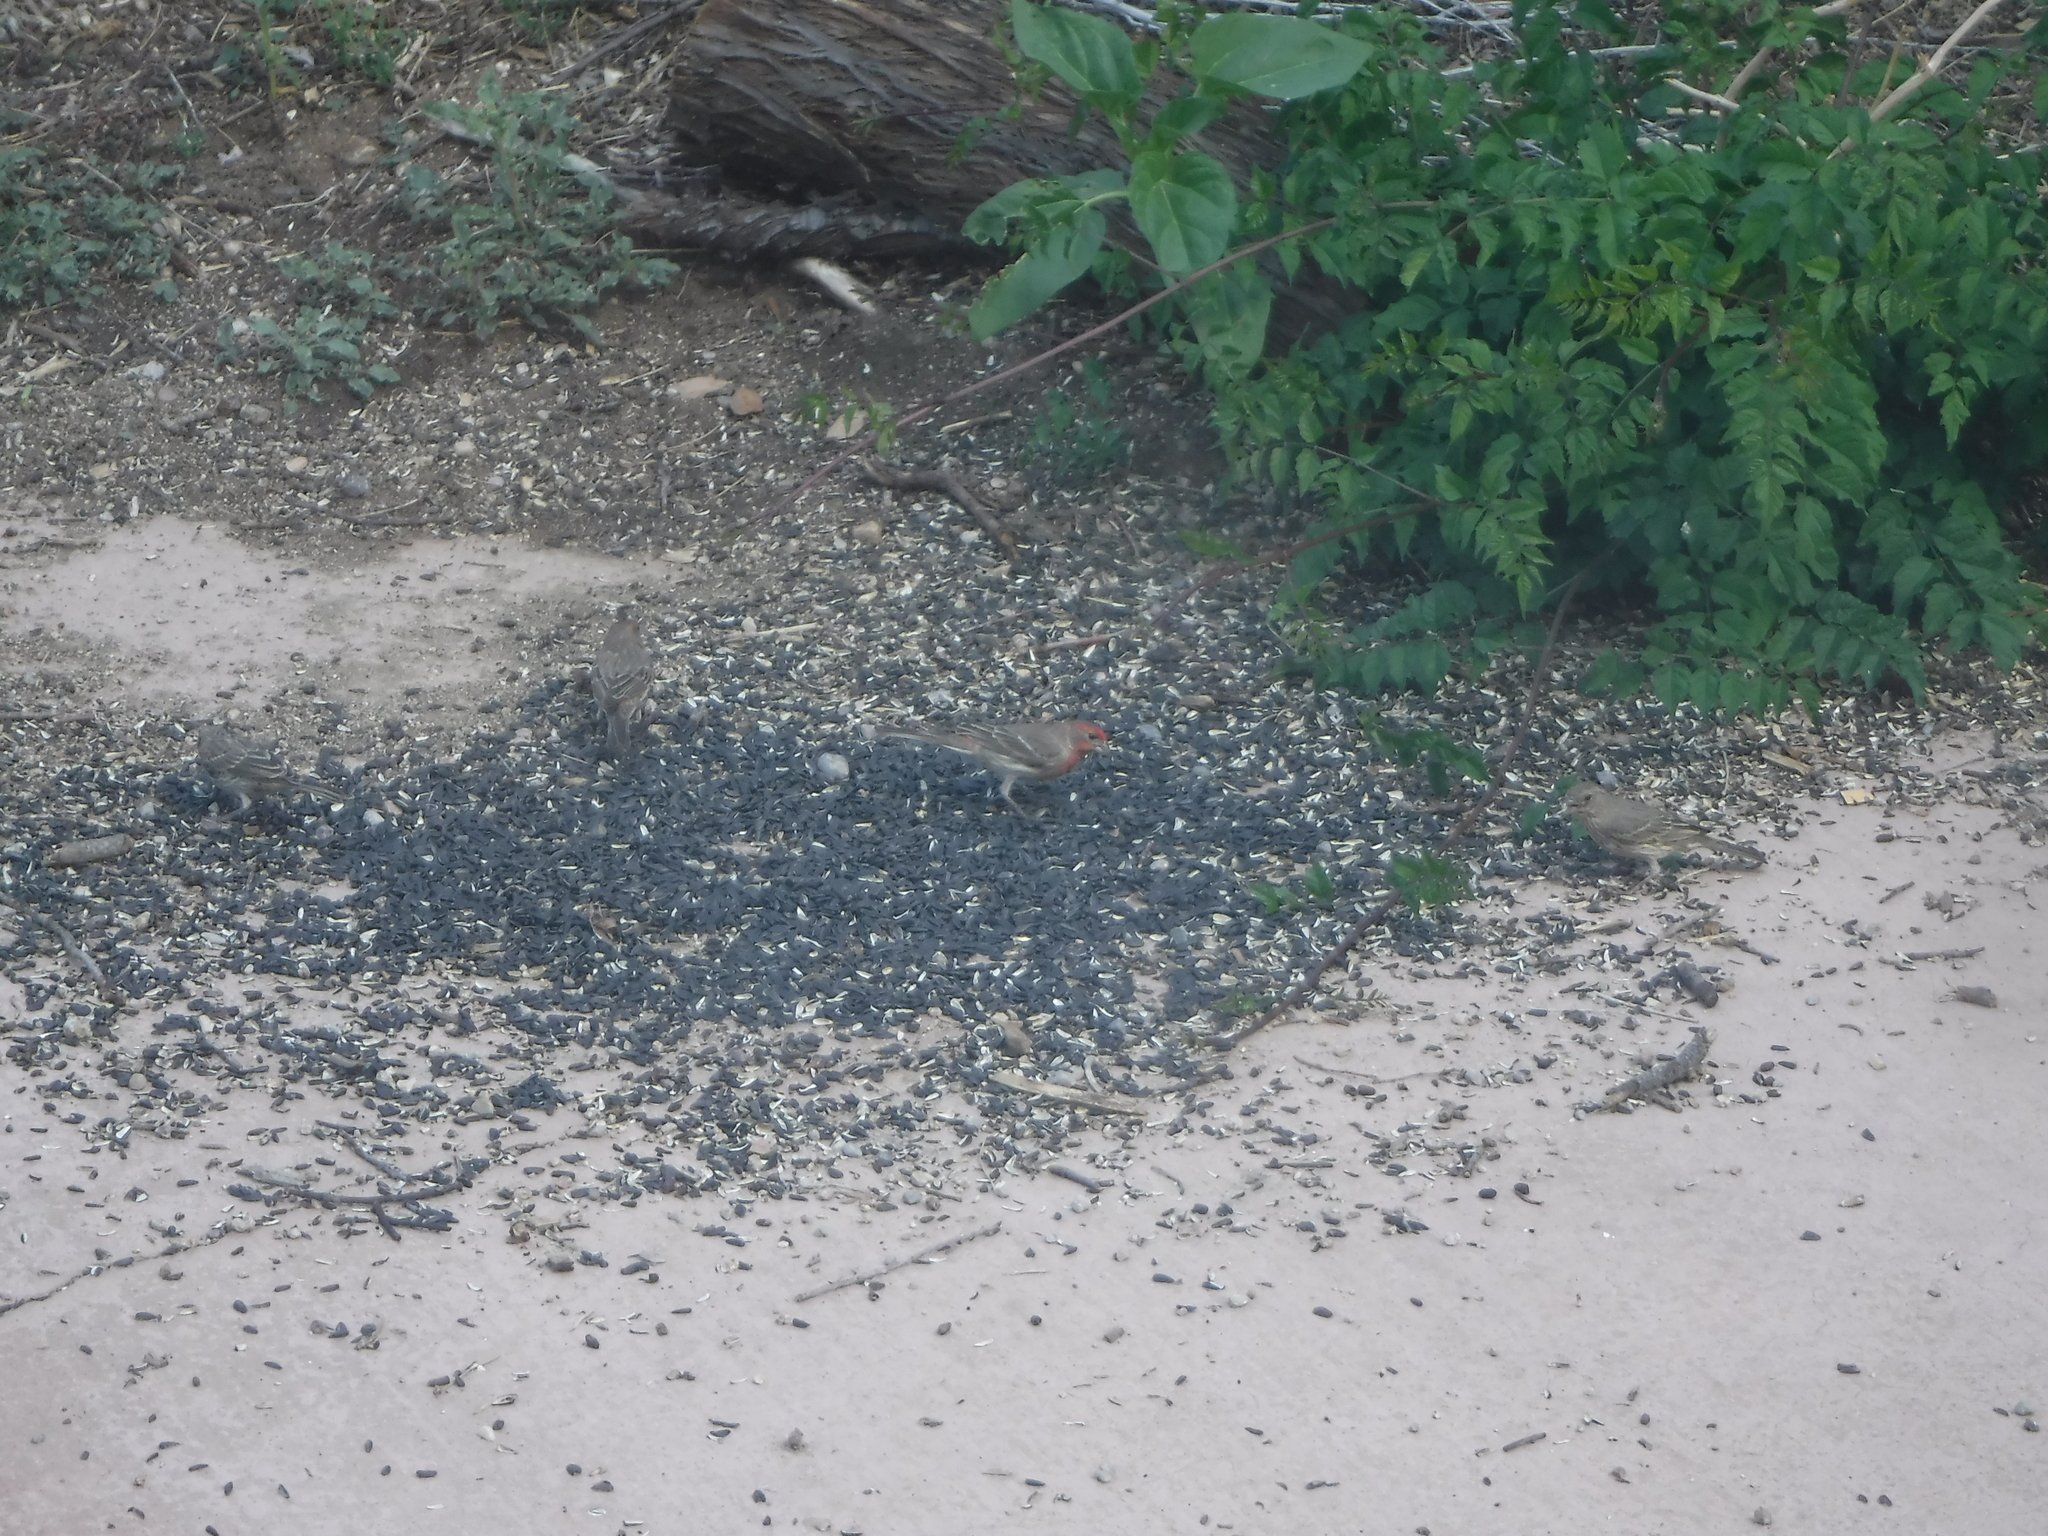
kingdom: Animalia
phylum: Chordata
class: Aves
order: Passeriformes
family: Fringillidae
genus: Haemorhous
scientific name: Haemorhous mexicanus
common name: House finch
